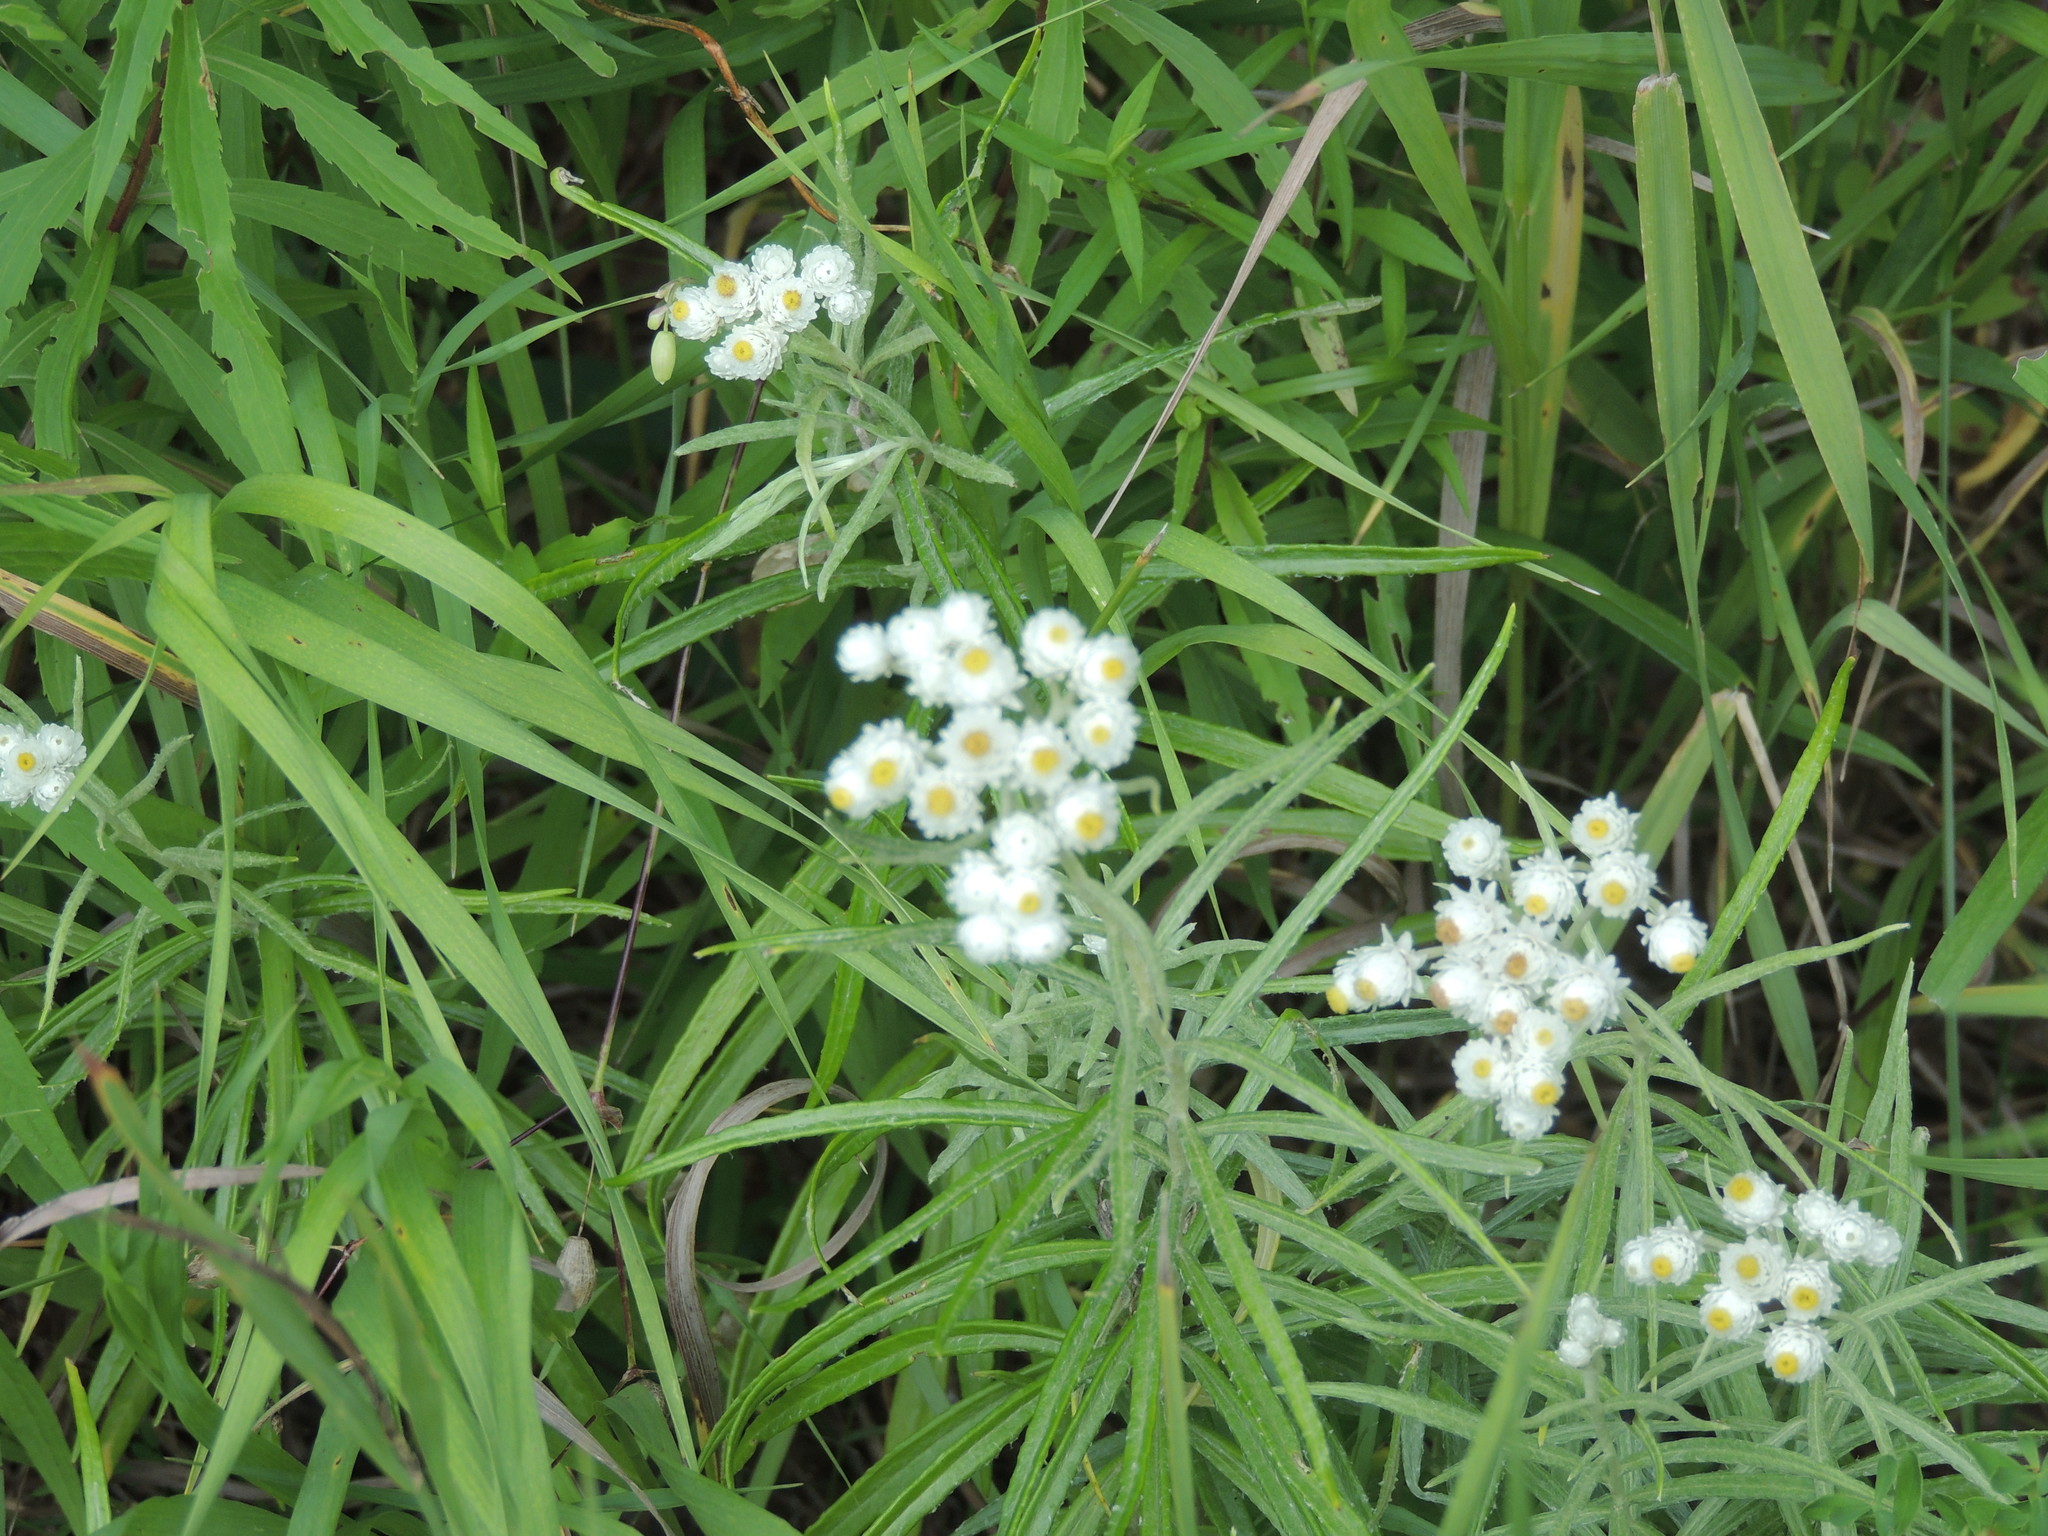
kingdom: Plantae
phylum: Tracheophyta
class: Magnoliopsida
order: Asterales
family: Asteraceae
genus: Anaphalis
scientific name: Anaphalis margaritacea
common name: Pearly everlasting
